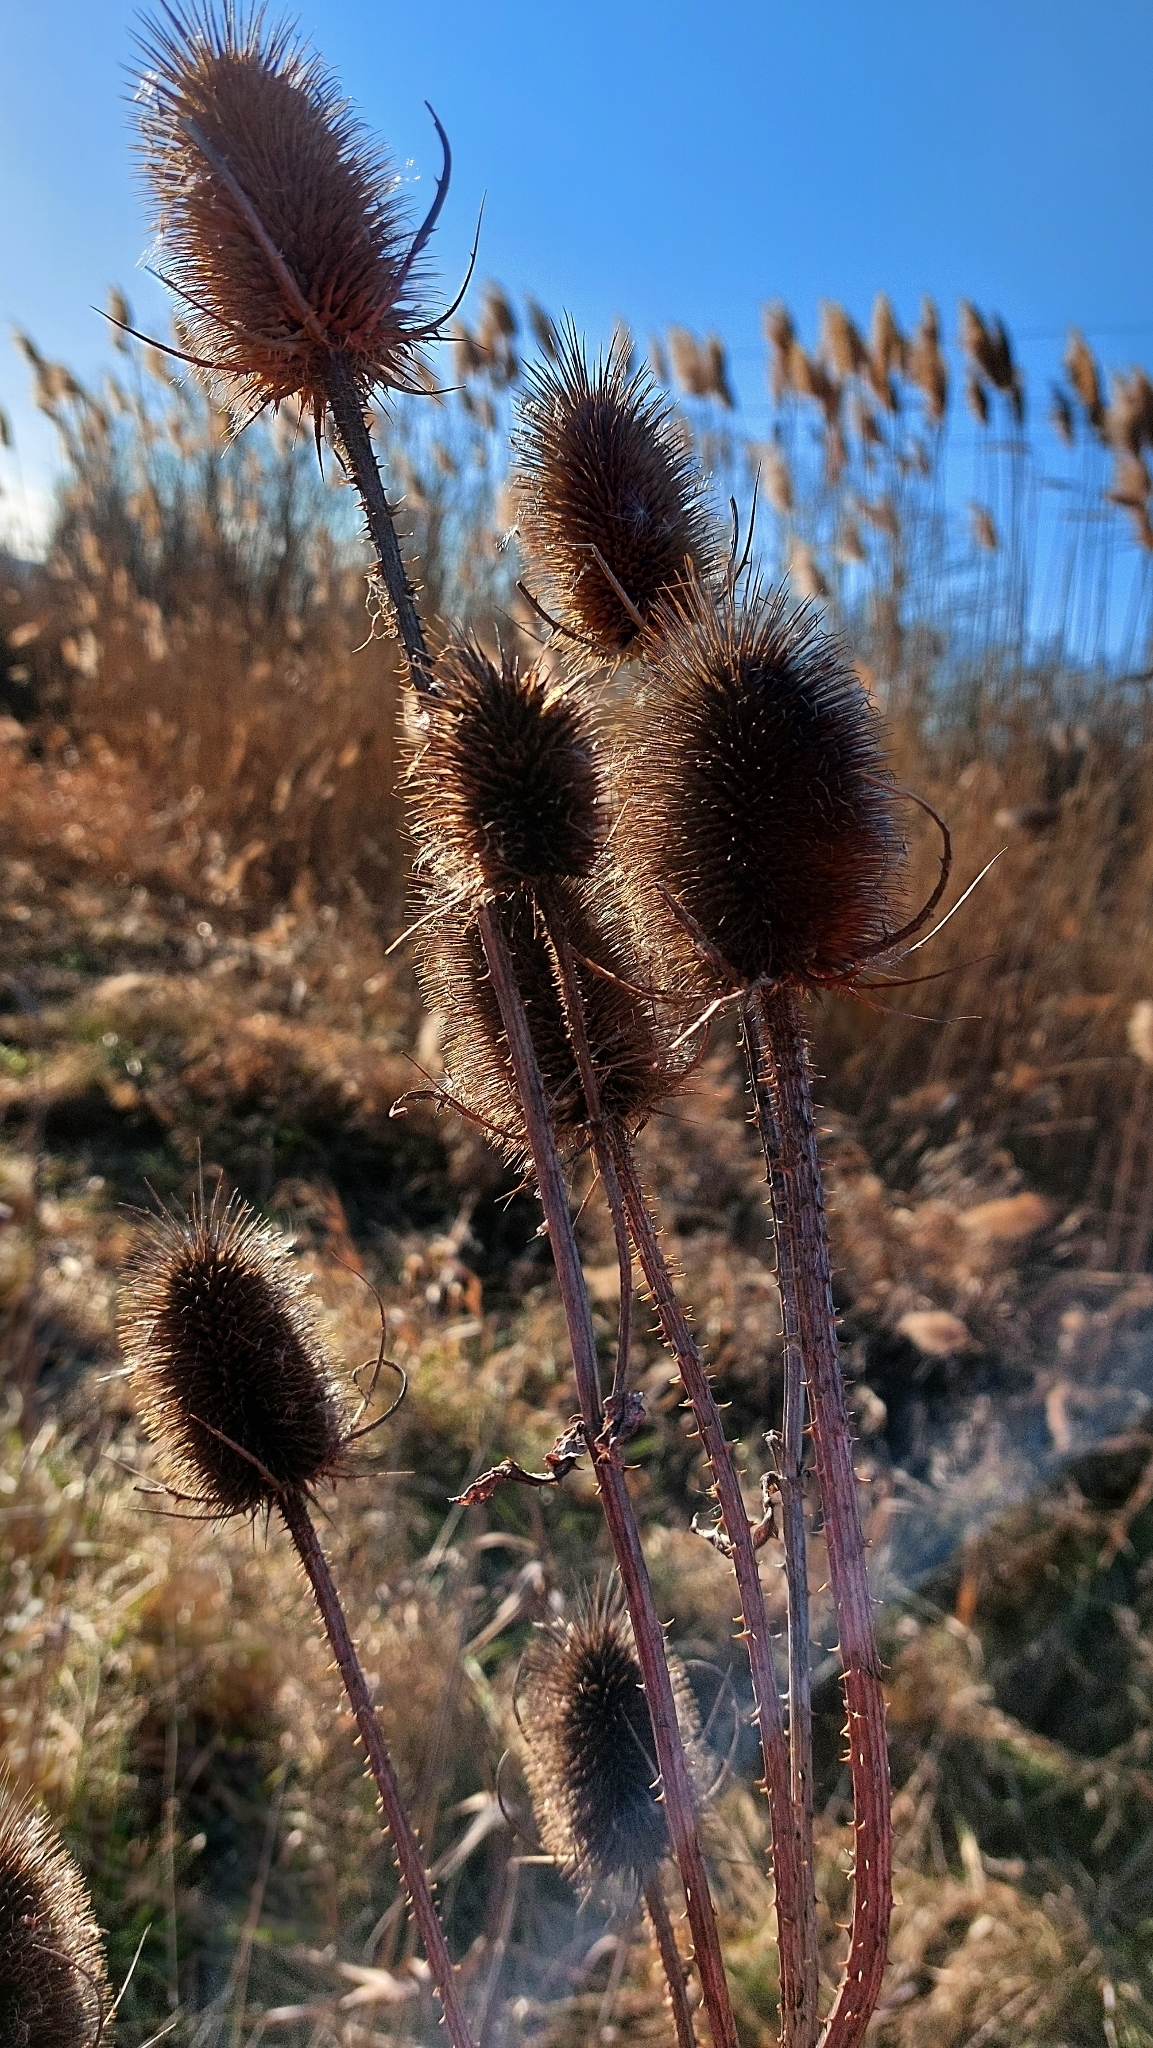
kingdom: Plantae
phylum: Tracheophyta
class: Magnoliopsida
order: Dipsacales
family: Caprifoliaceae
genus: Dipsacus
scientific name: Dipsacus fullonum
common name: Teasel
